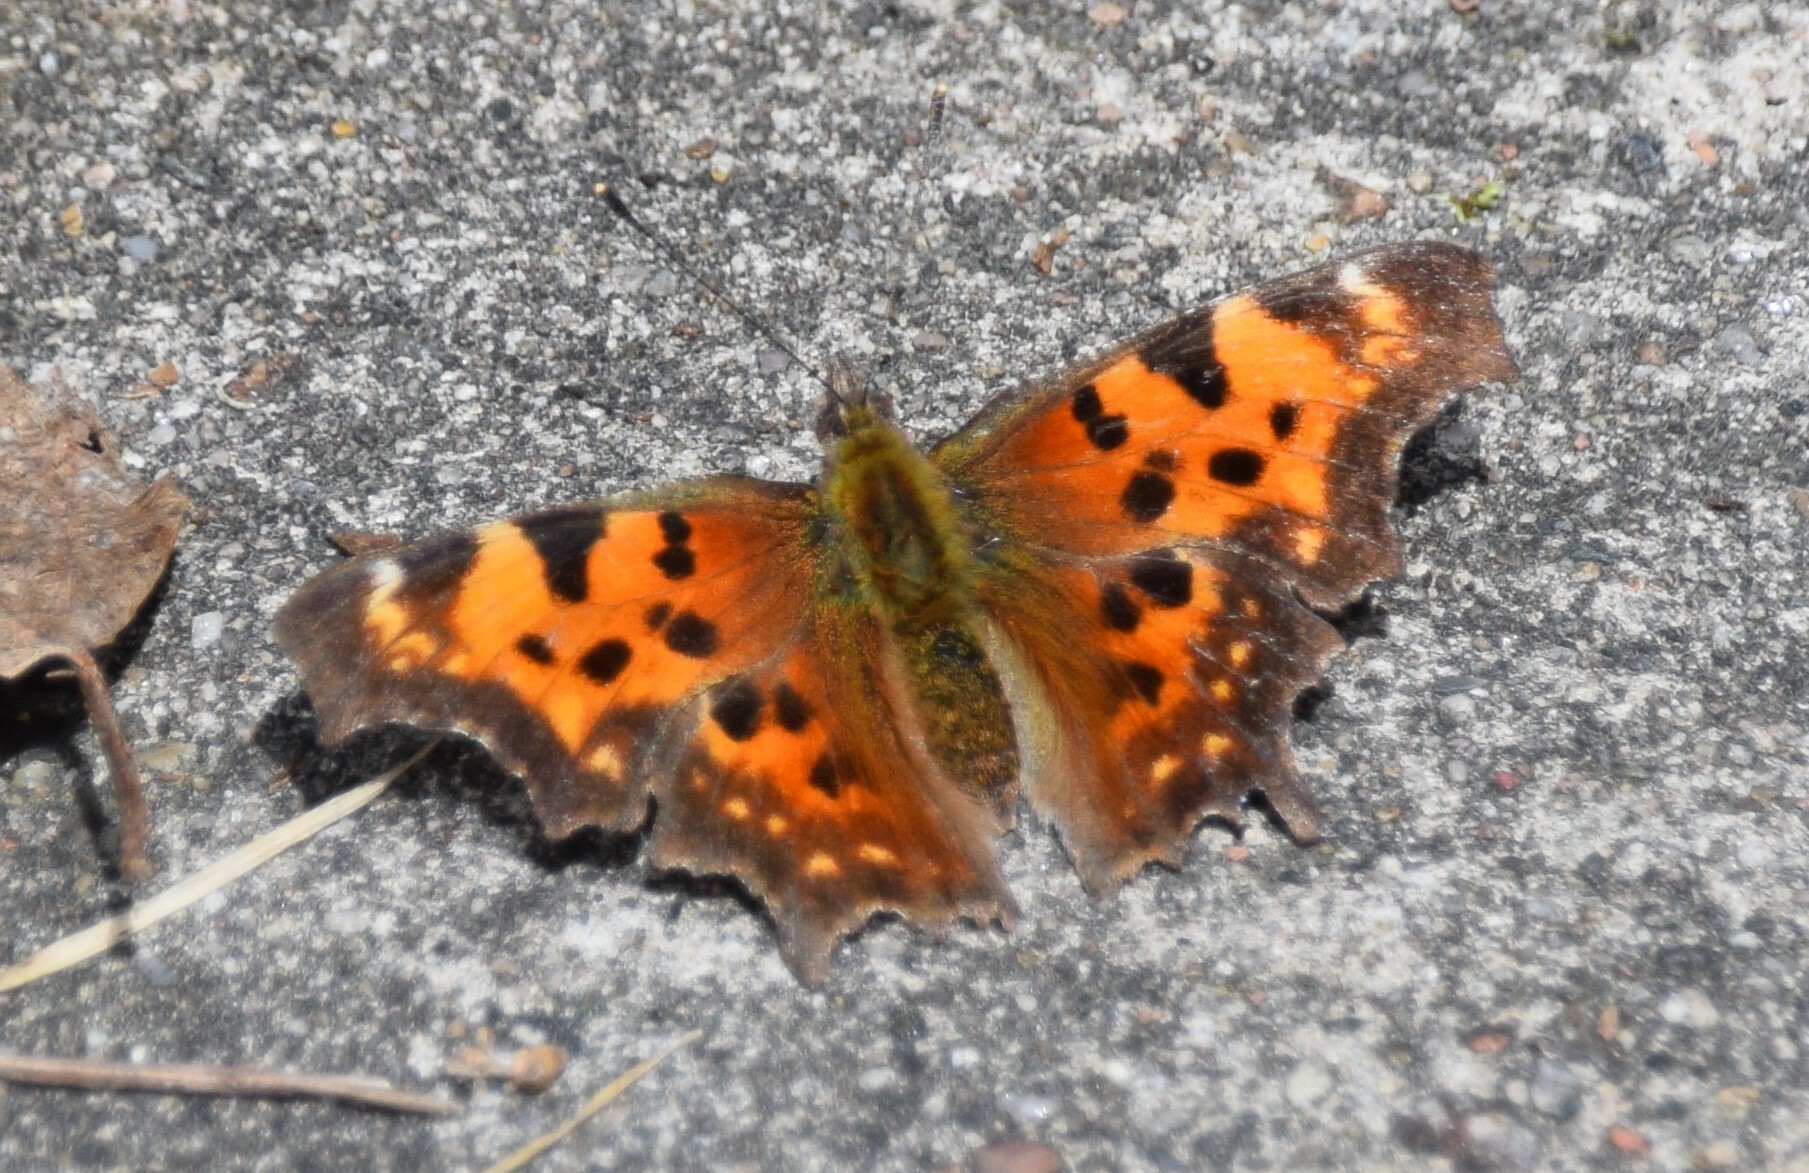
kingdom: Animalia
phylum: Arthropoda
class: Insecta
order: Lepidoptera
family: Nymphalidae
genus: Polygonia
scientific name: Polygonia faunus
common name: Green comma
